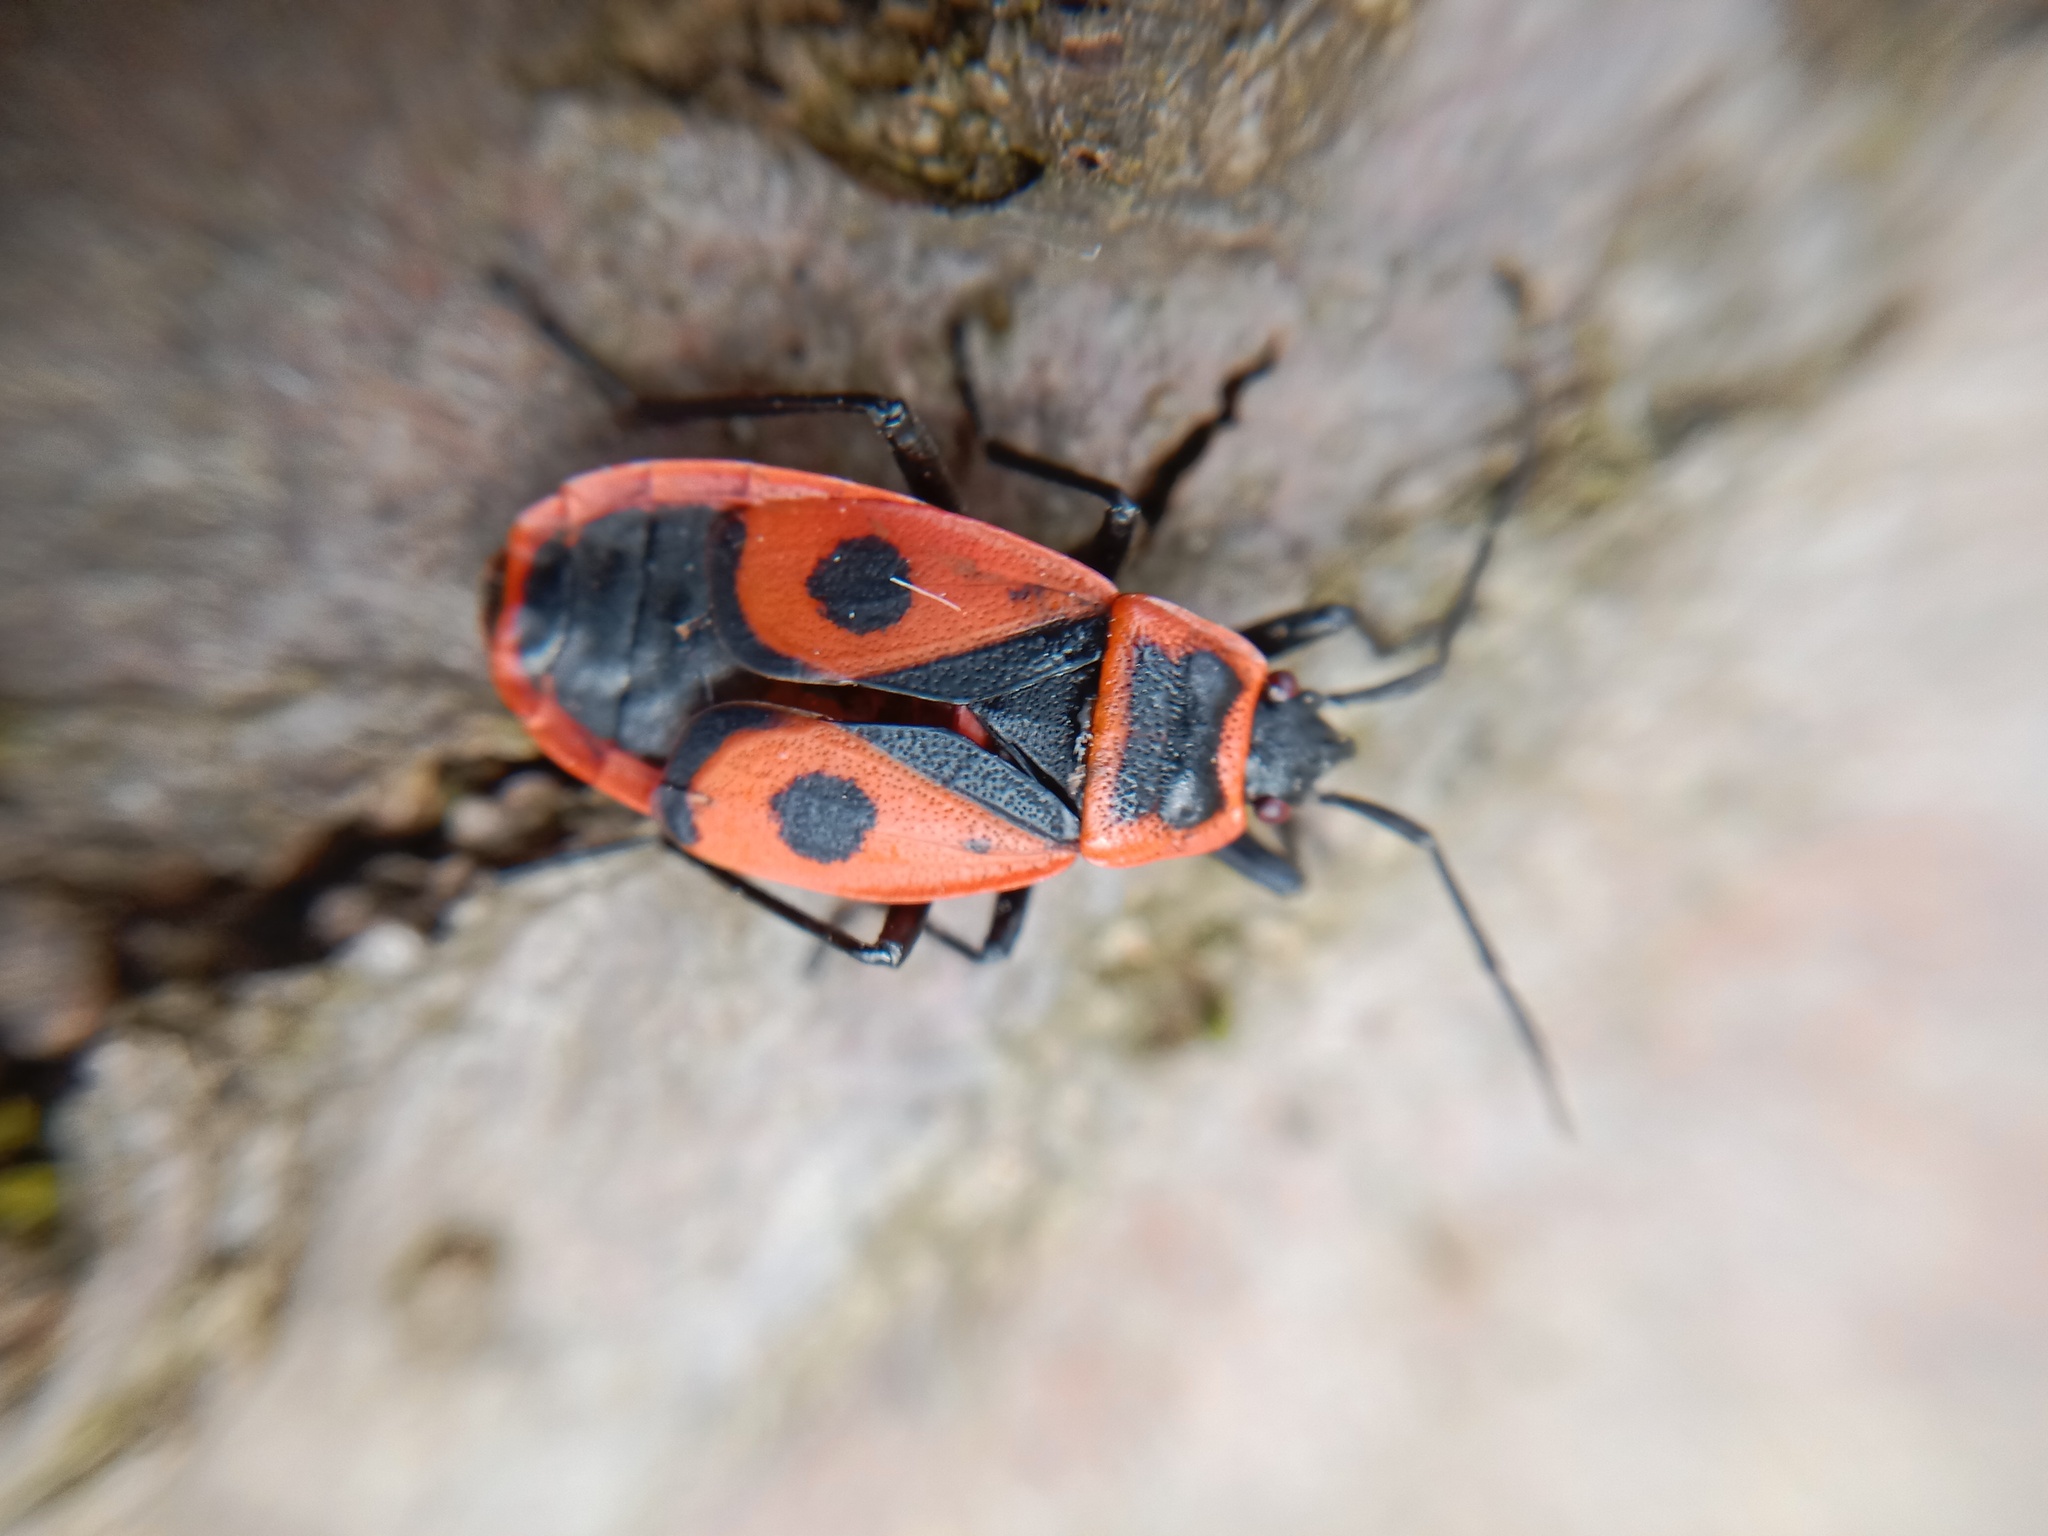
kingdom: Animalia
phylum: Arthropoda
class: Insecta
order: Hemiptera
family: Pyrrhocoridae
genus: Pyrrhocoris
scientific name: Pyrrhocoris apterus
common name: Firebug
